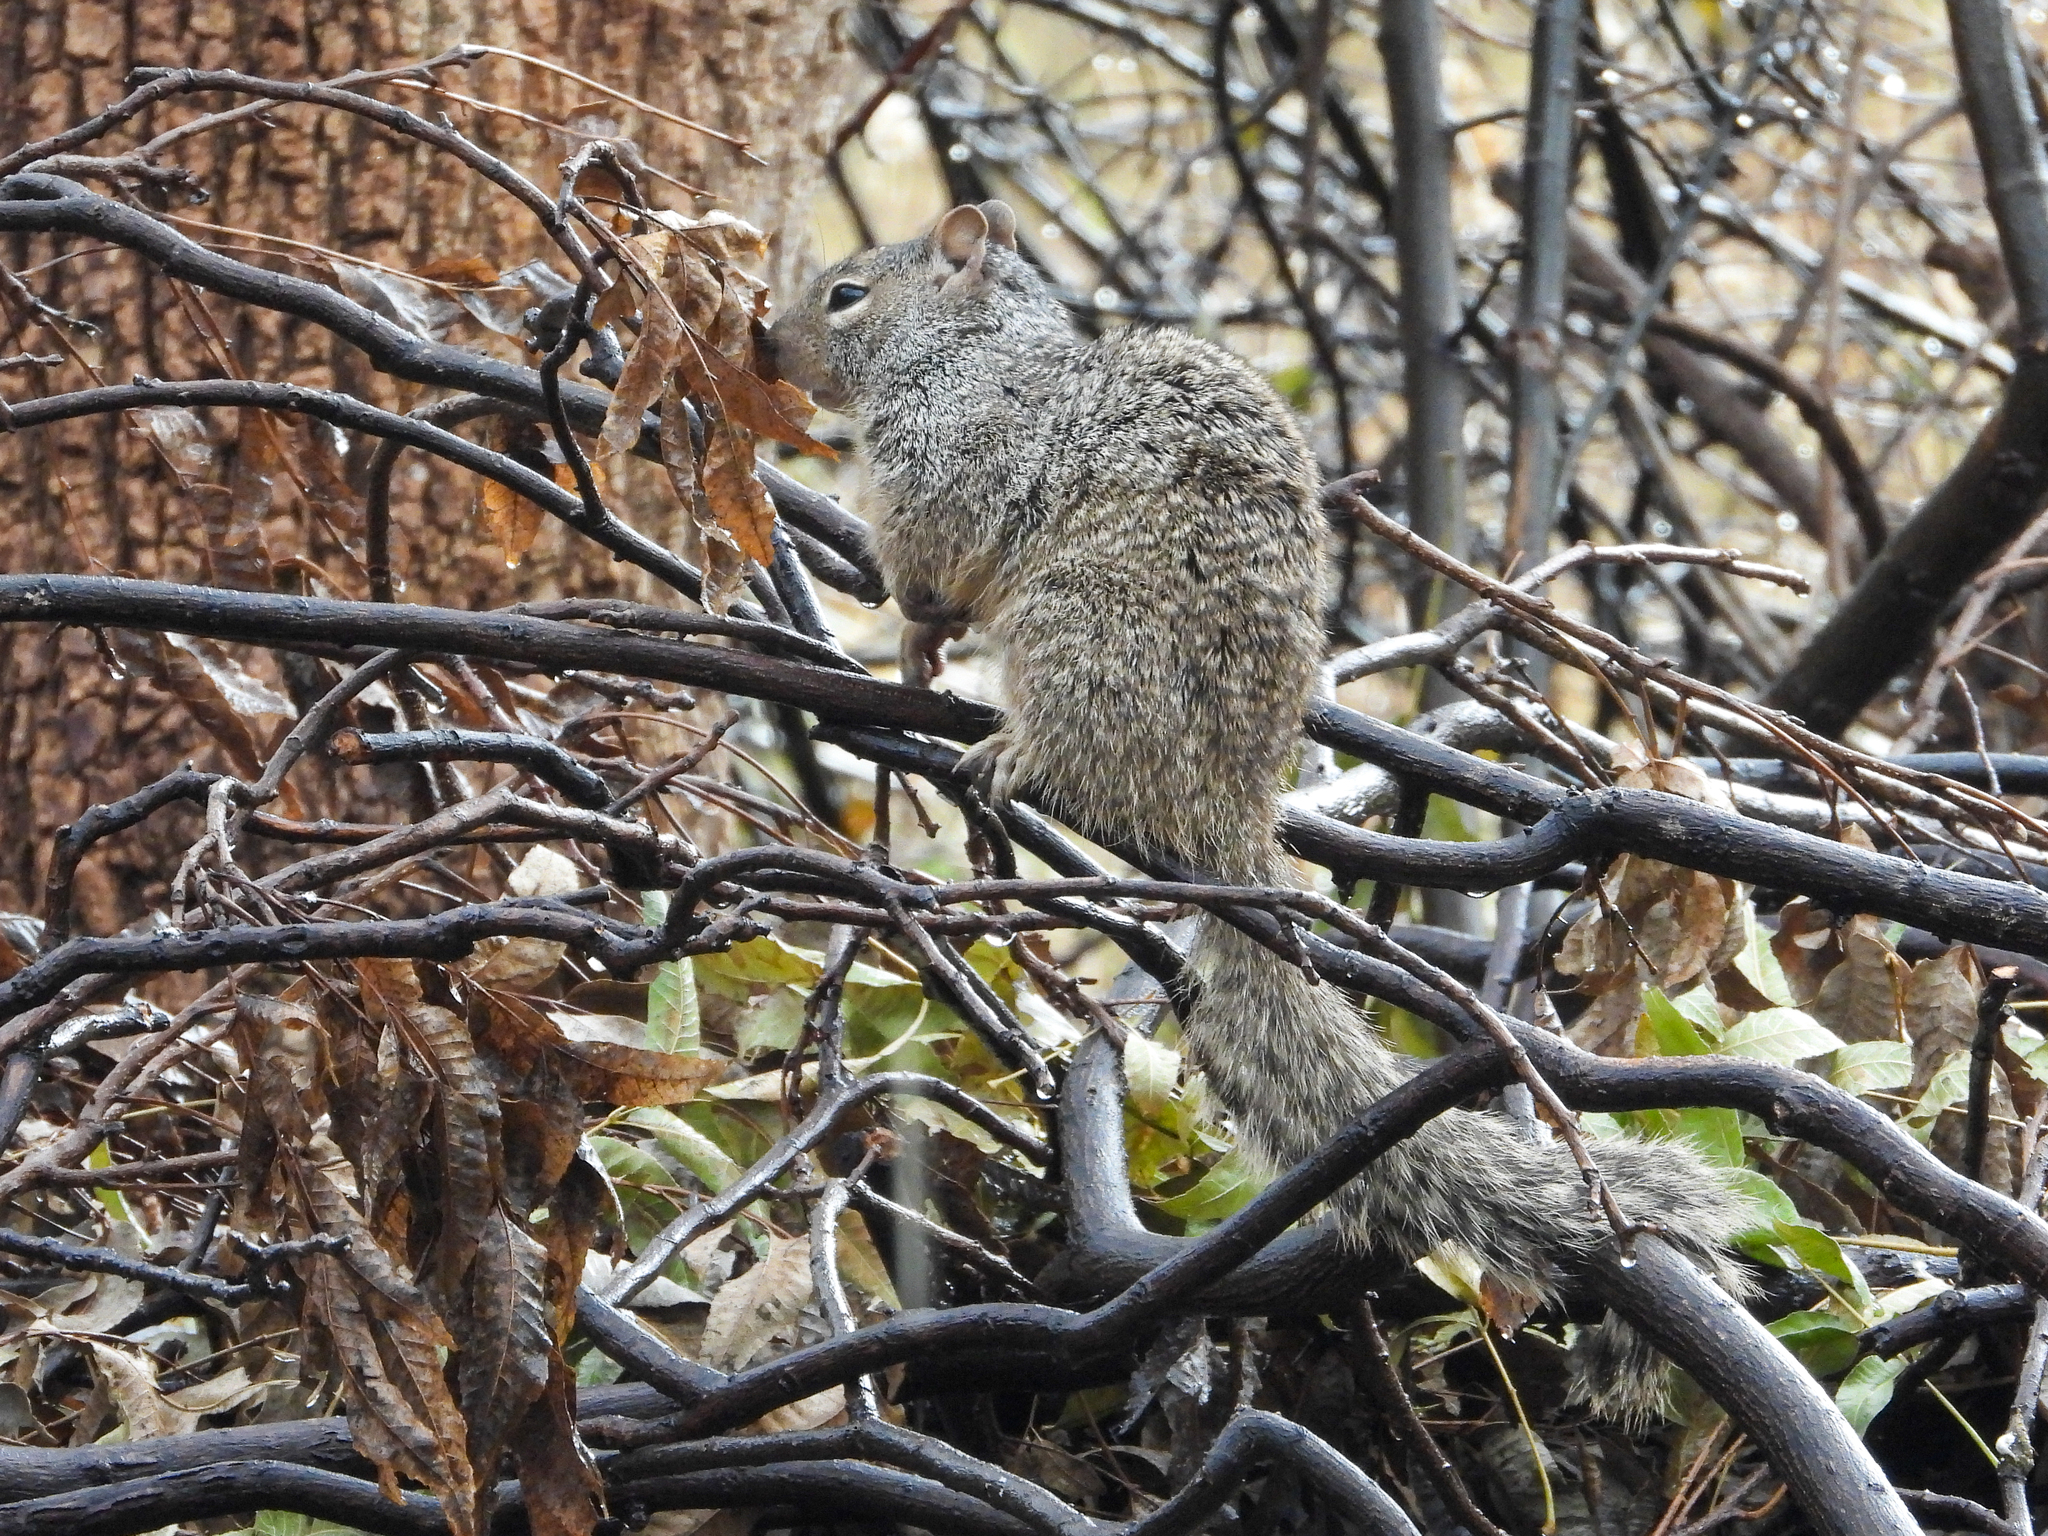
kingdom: Animalia
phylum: Chordata
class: Mammalia
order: Rodentia
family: Sciuridae
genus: Otospermophilus
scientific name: Otospermophilus variegatus
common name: Rock squirrel
